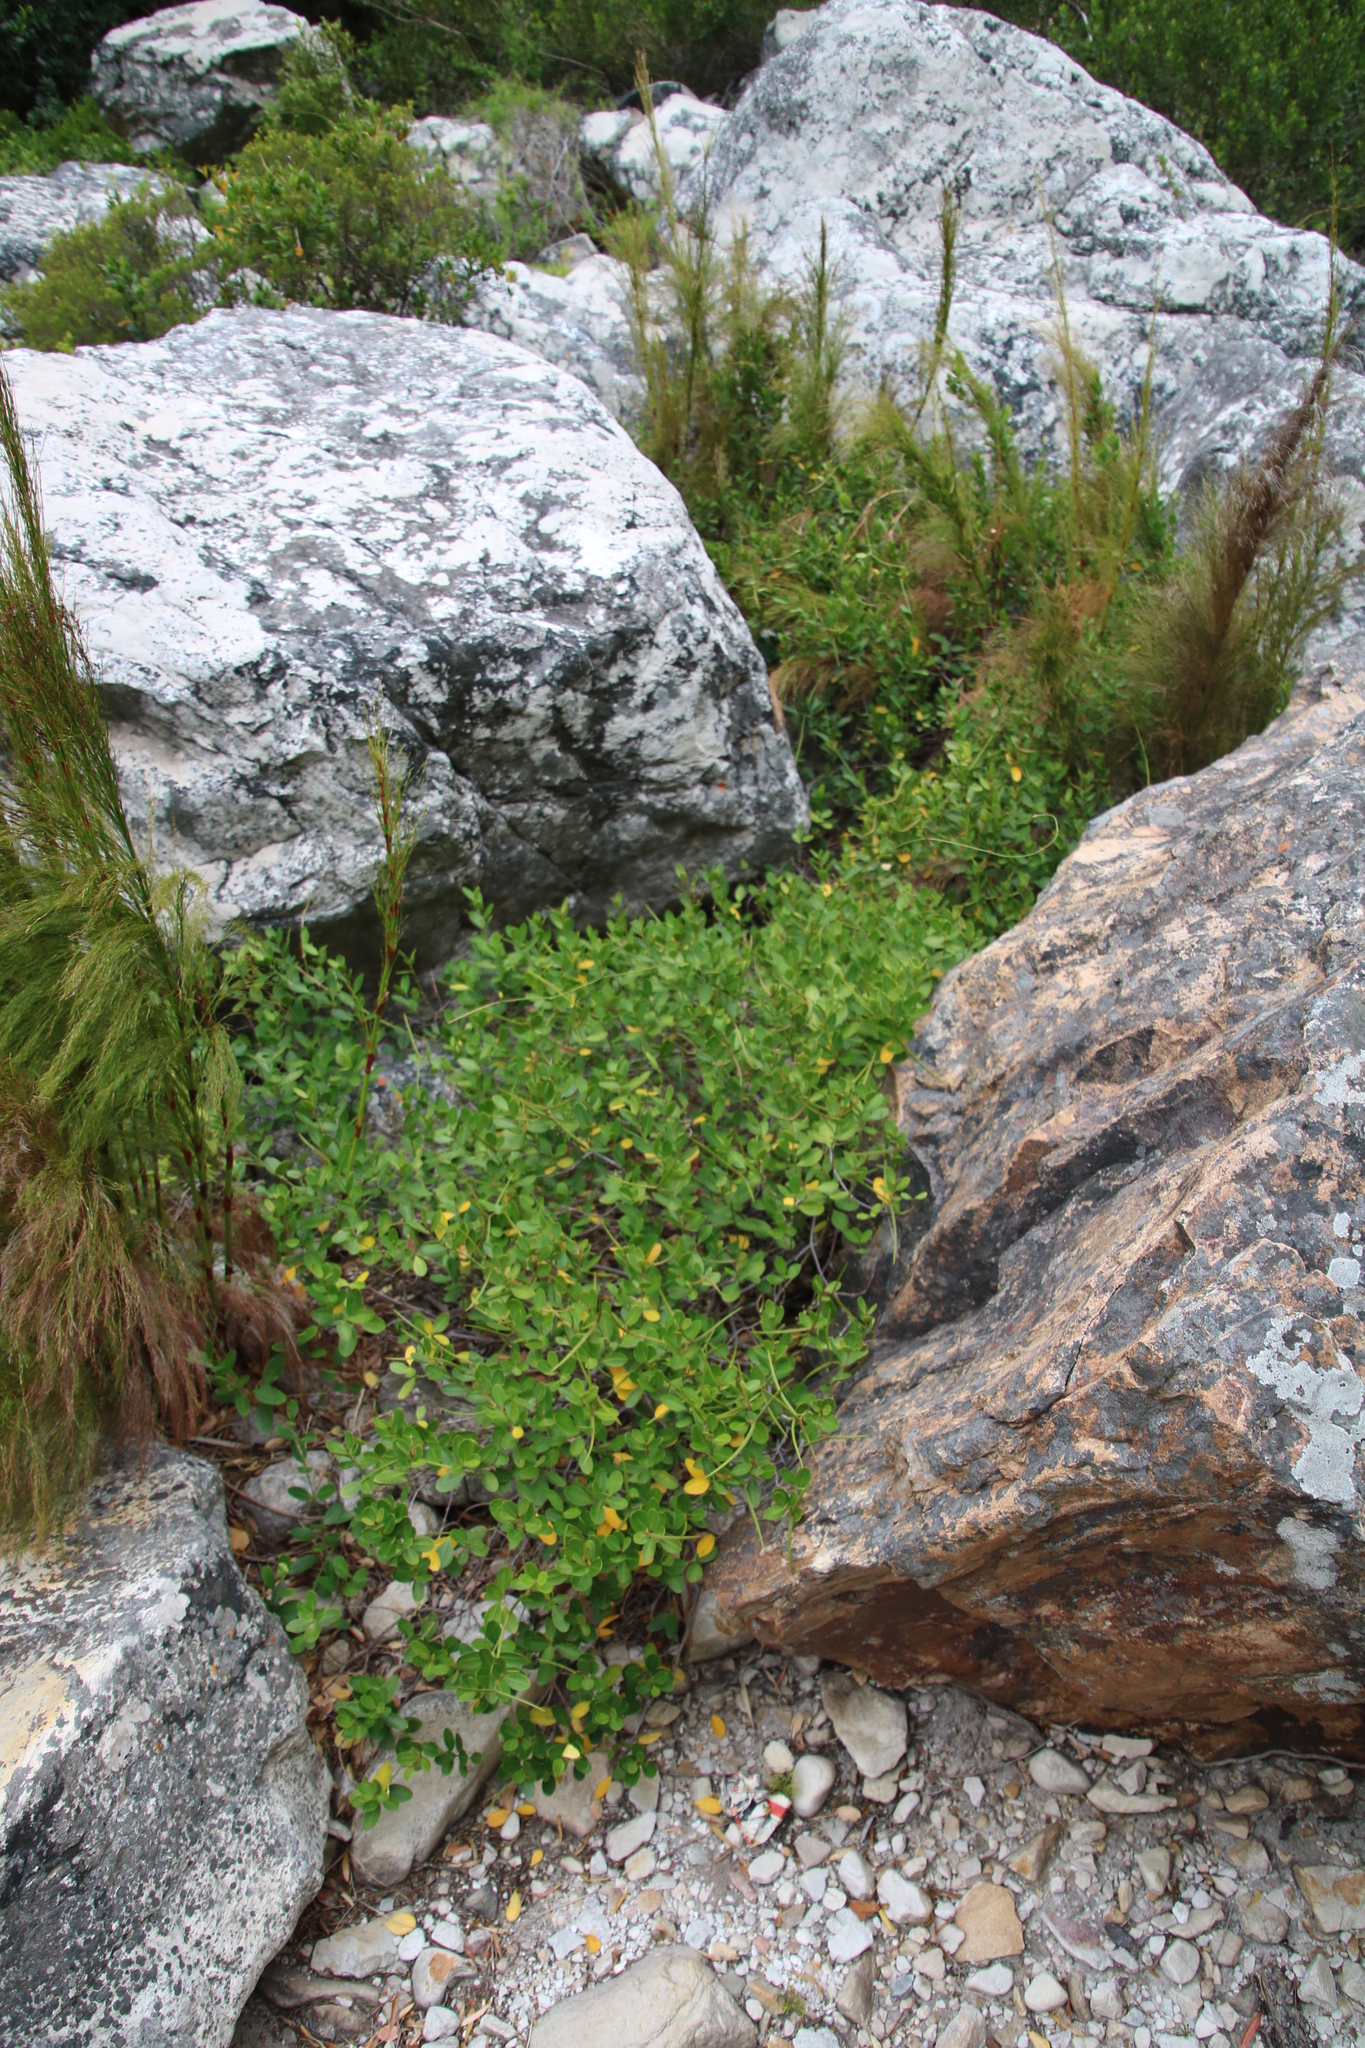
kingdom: Plantae
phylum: Tracheophyta
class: Magnoliopsida
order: Gentianales
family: Apocynaceae
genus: Secamone
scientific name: Secamone alpini
